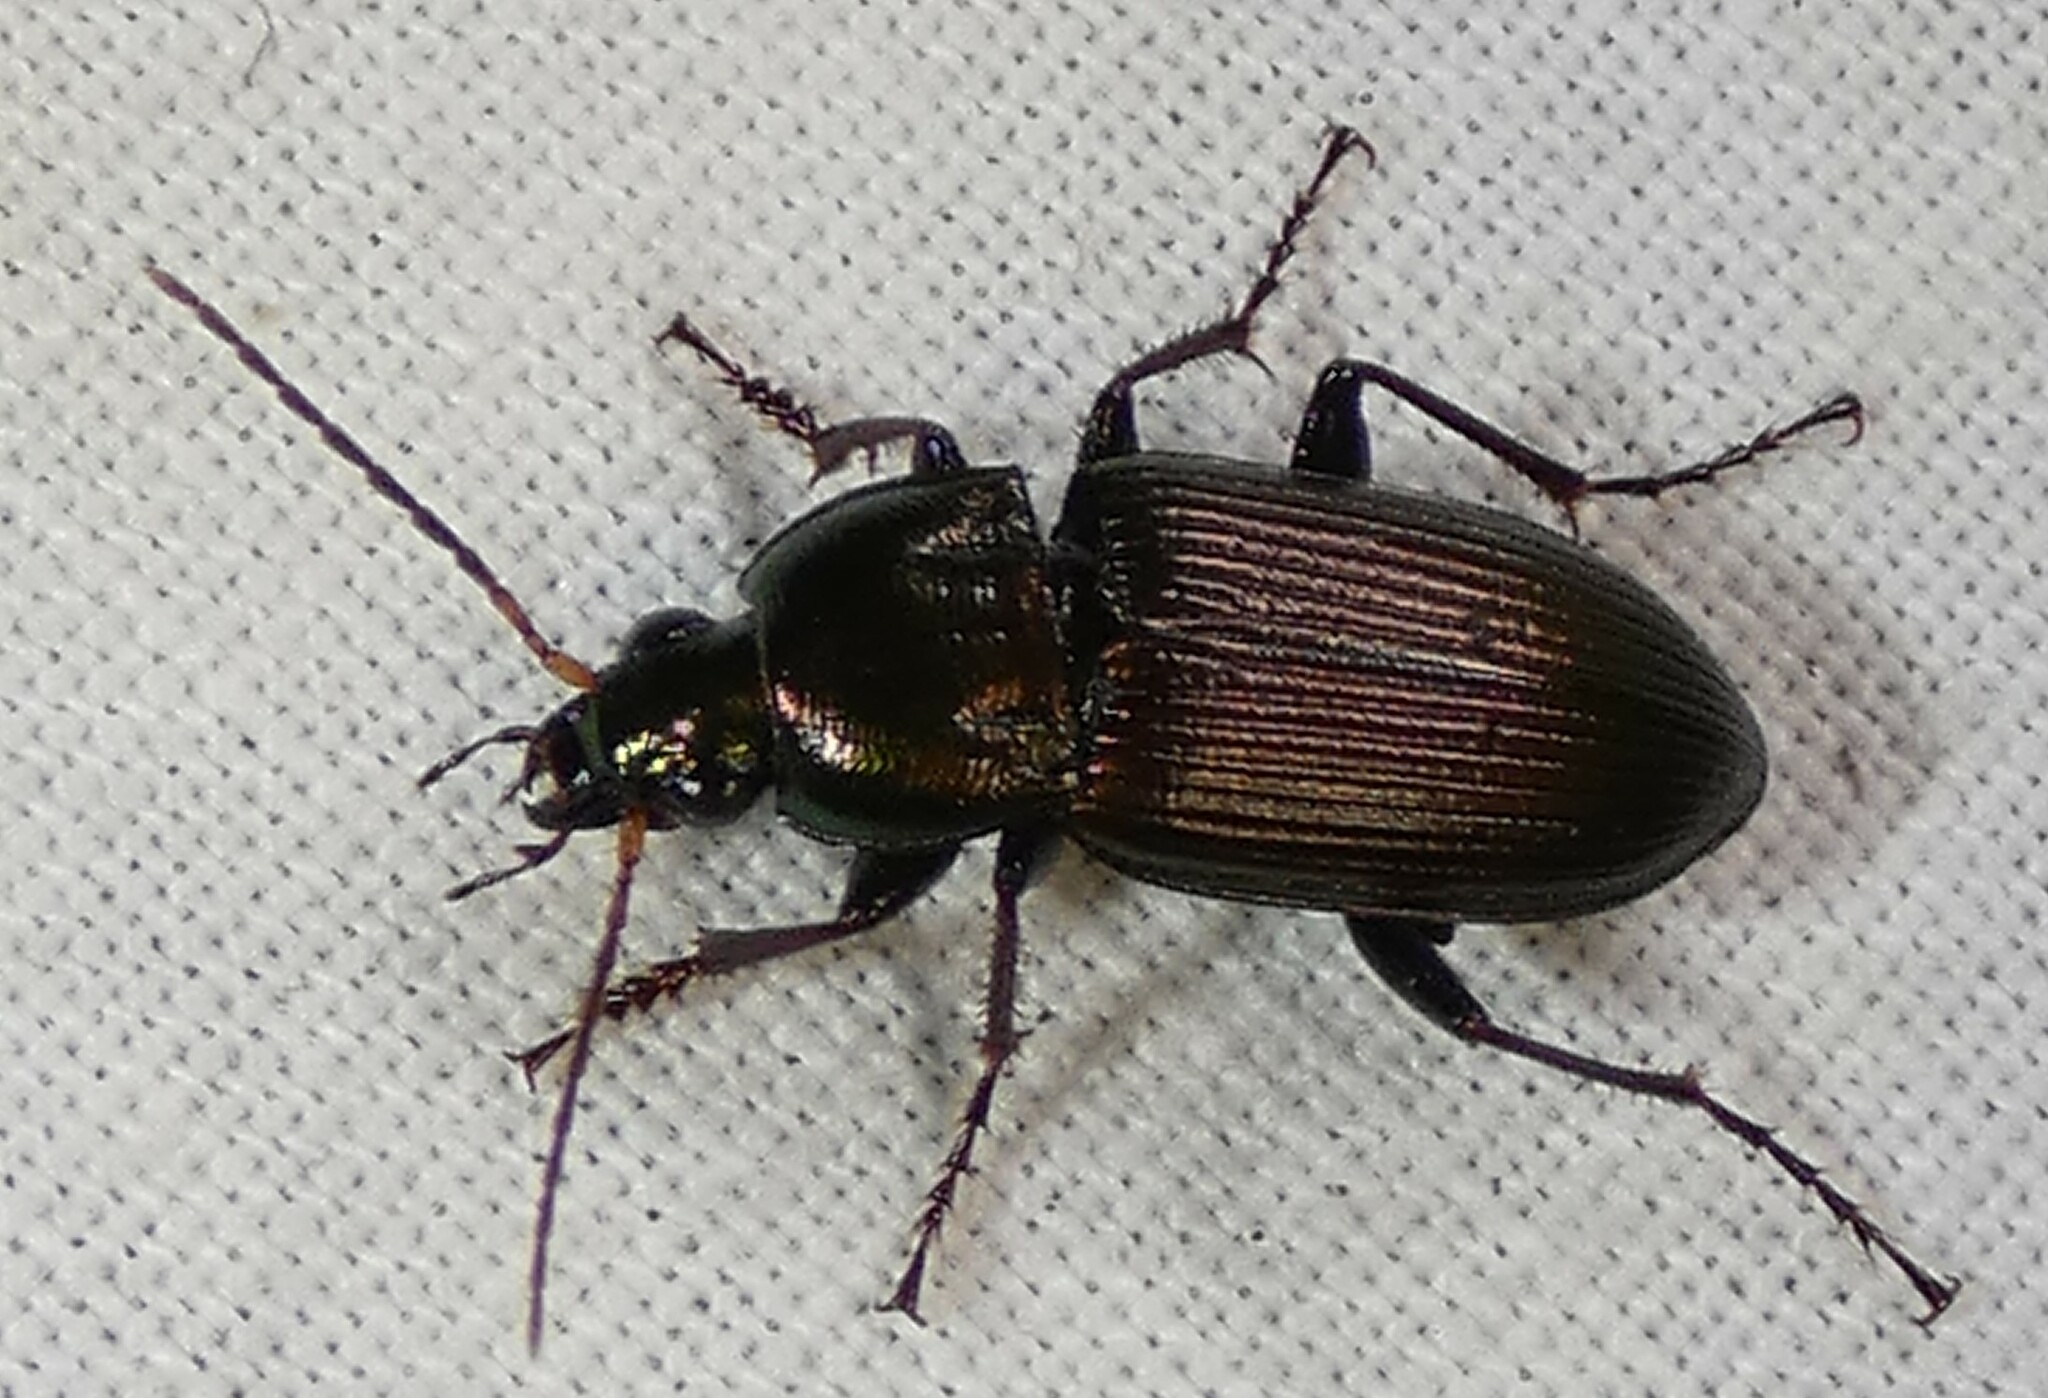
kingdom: Animalia
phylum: Arthropoda
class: Insecta
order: Coleoptera
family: Carabidae
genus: Poecilus
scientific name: Poecilus chalcites
